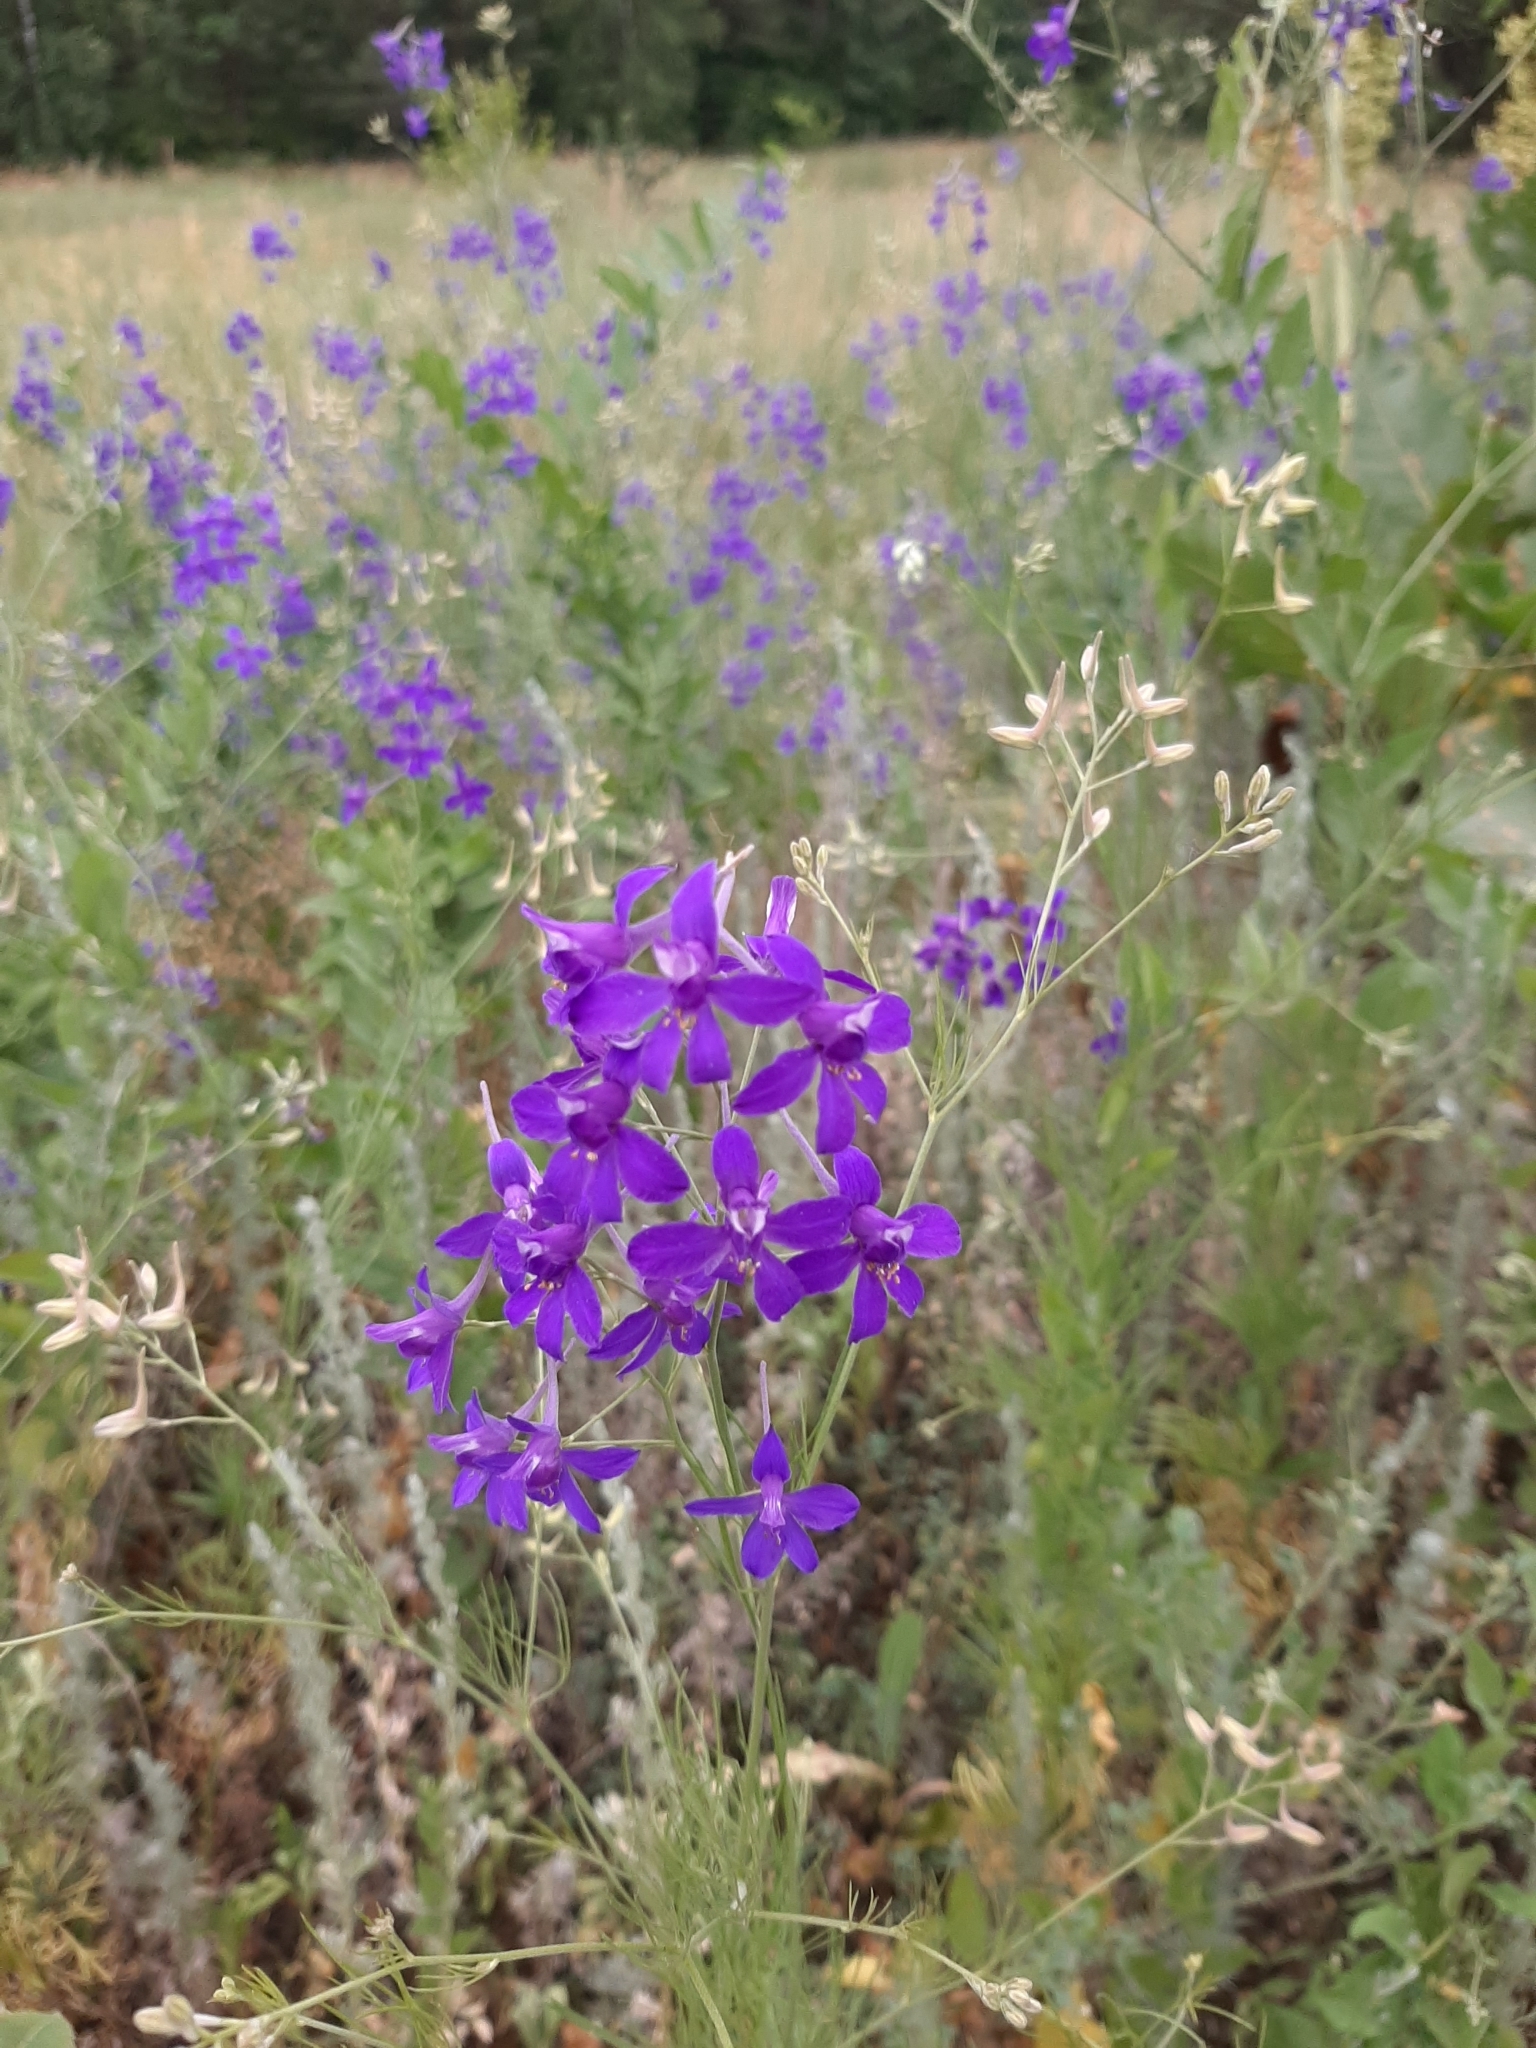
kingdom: Plantae
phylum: Tracheophyta
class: Magnoliopsida
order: Ranunculales
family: Ranunculaceae
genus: Delphinium
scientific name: Delphinium consolida
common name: Branching larkspur
